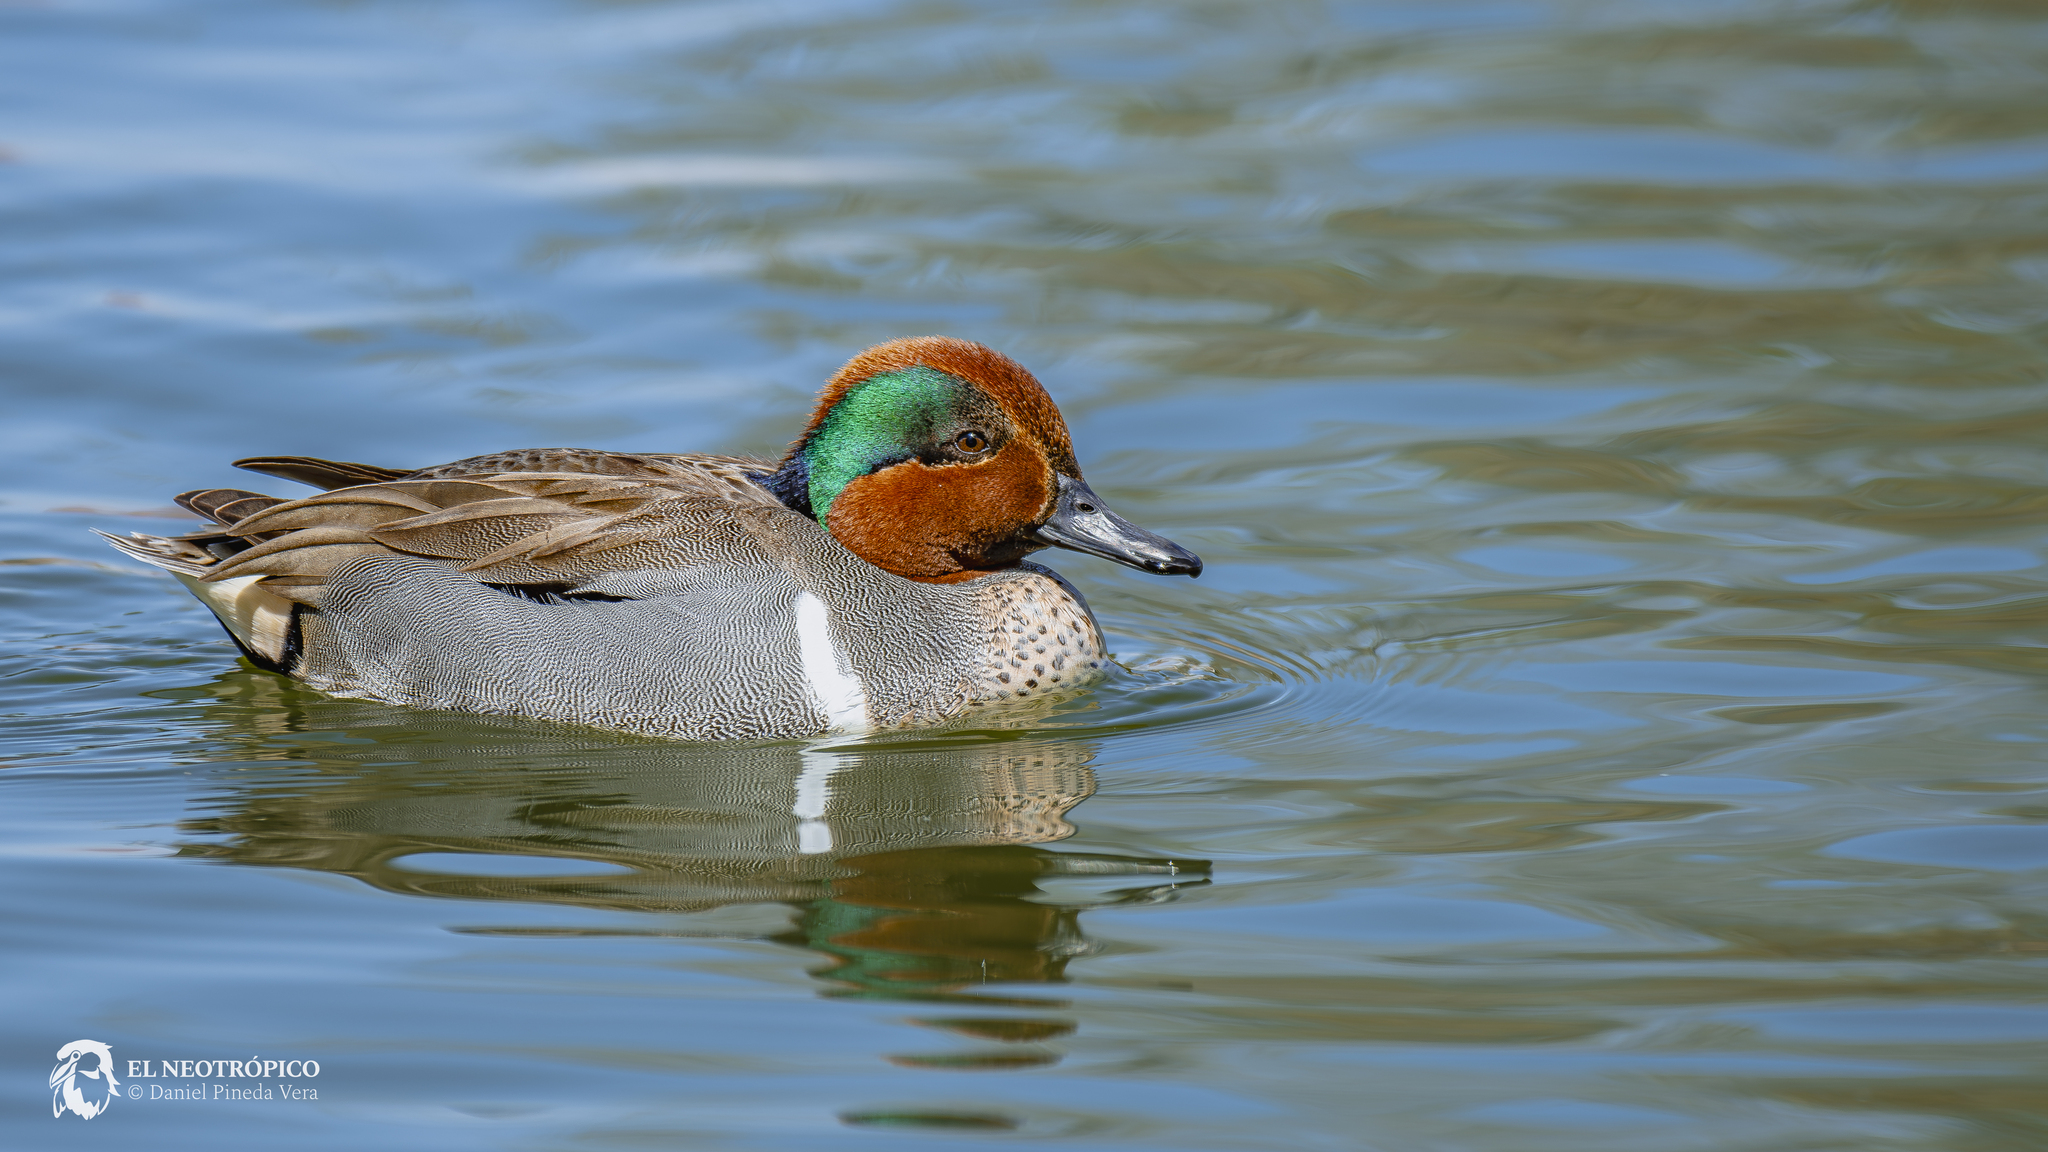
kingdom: Animalia
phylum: Chordata
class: Aves
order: Anseriformes
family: Anatidae
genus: Anas
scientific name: Anas crecca
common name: Eurasian teal
